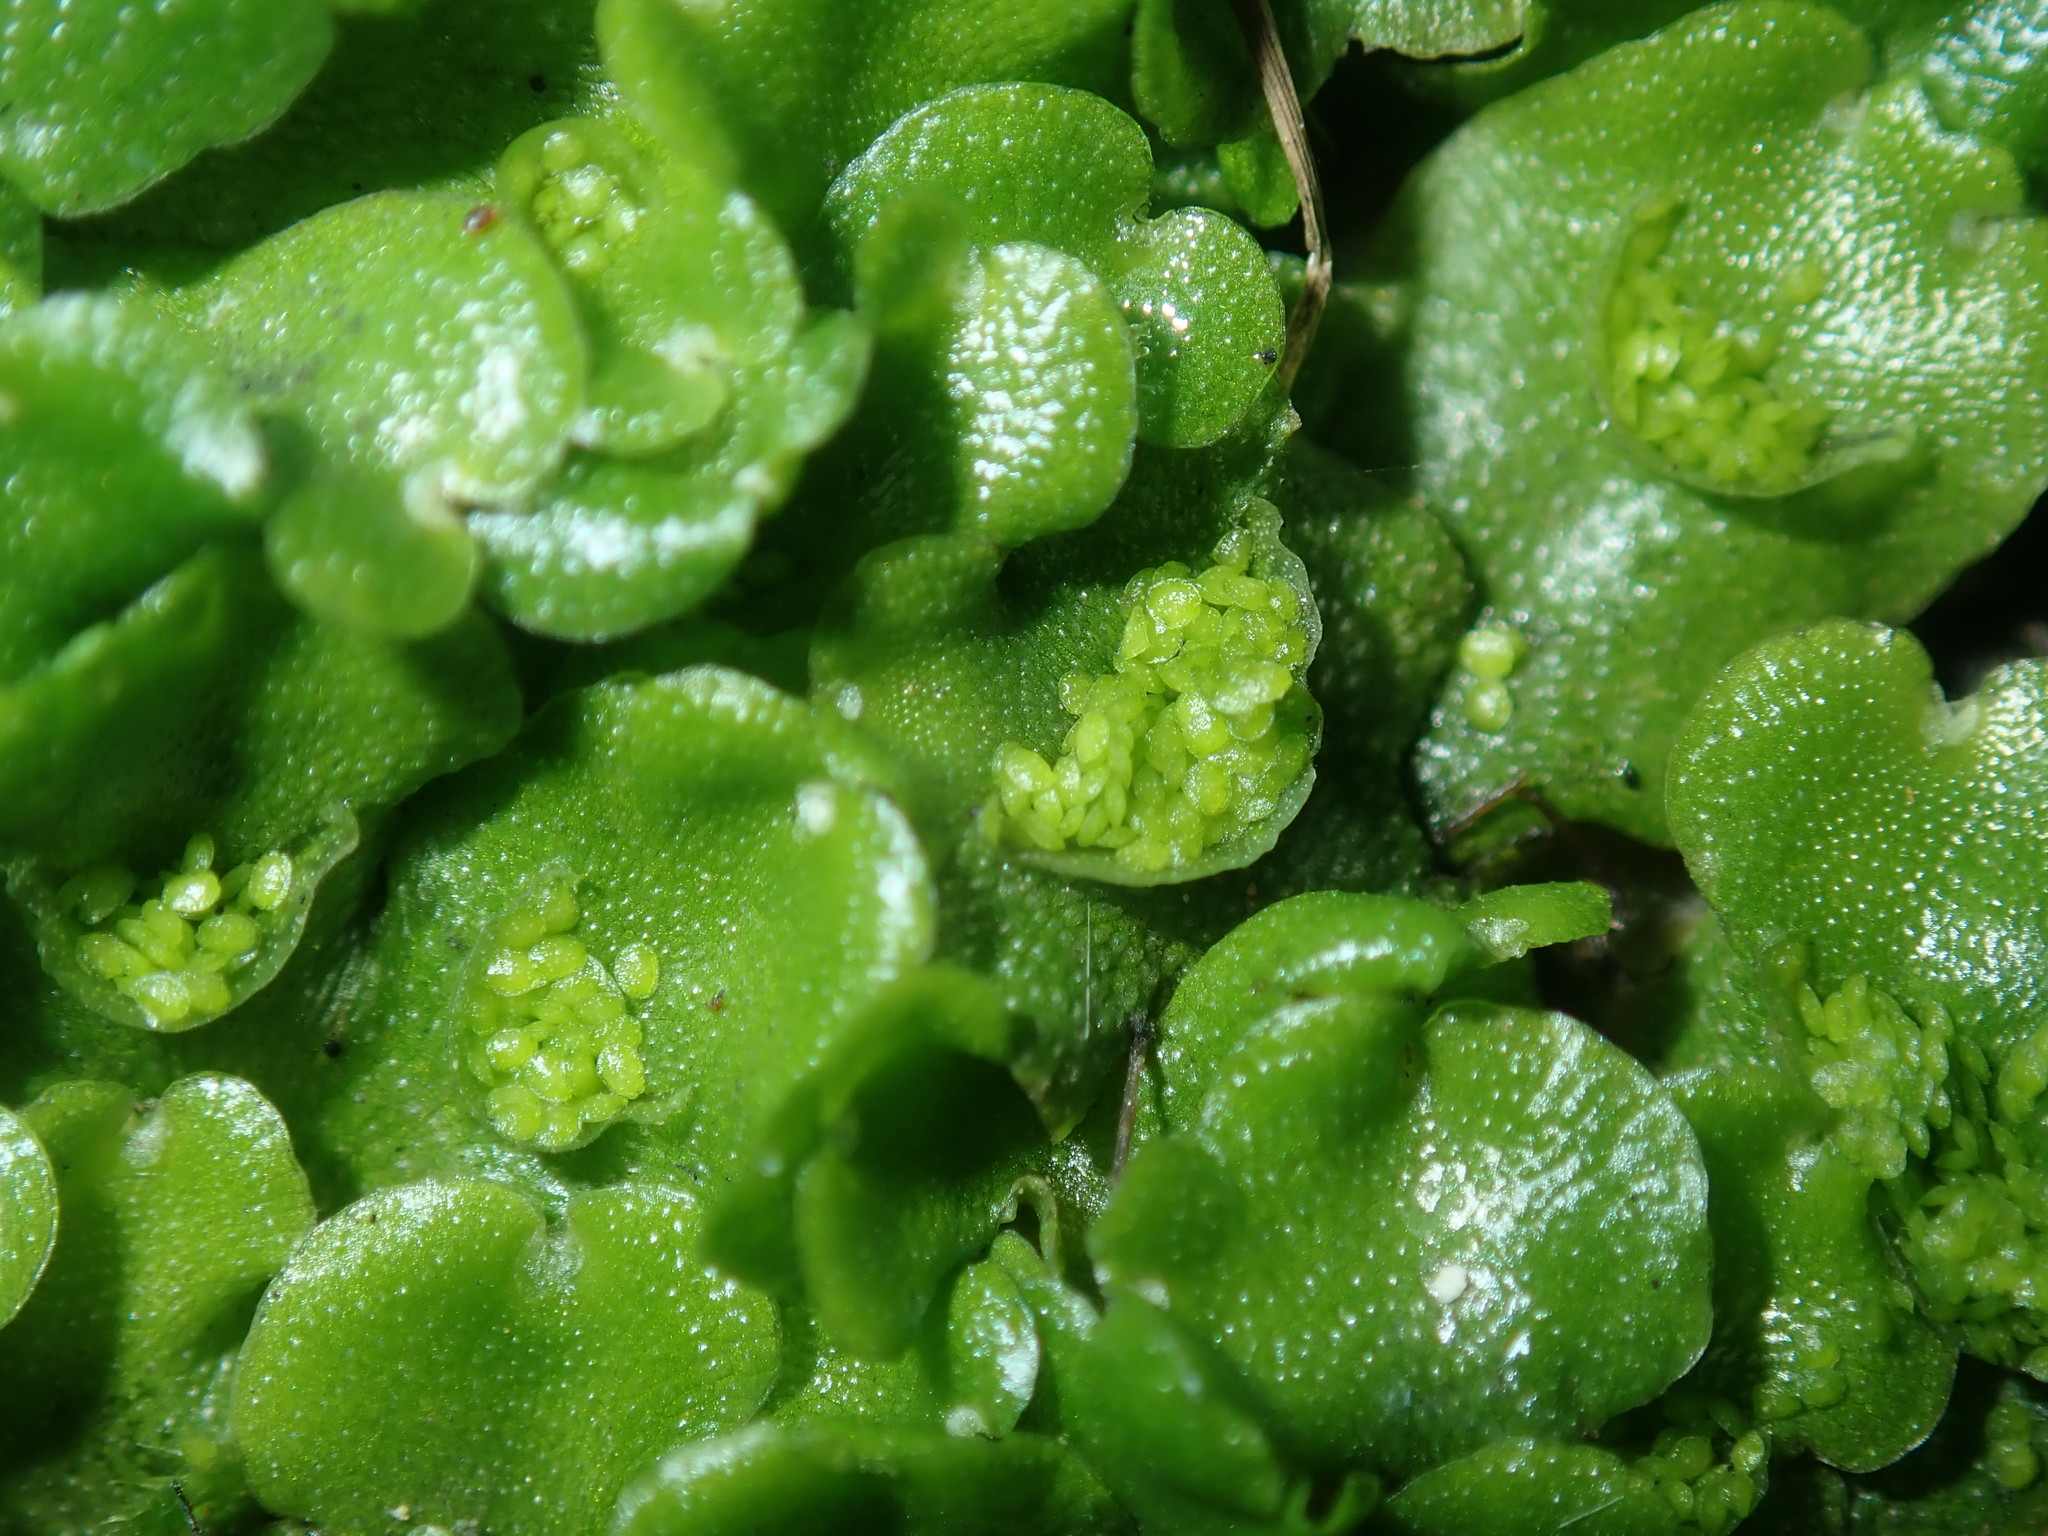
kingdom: Plantae
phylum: Marchantiophyta
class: Marchantiopsida
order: Lunulariales
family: Lunulariaceae
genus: Lunularia
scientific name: Lunularia cruciata
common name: Crescent-cup liverwort
